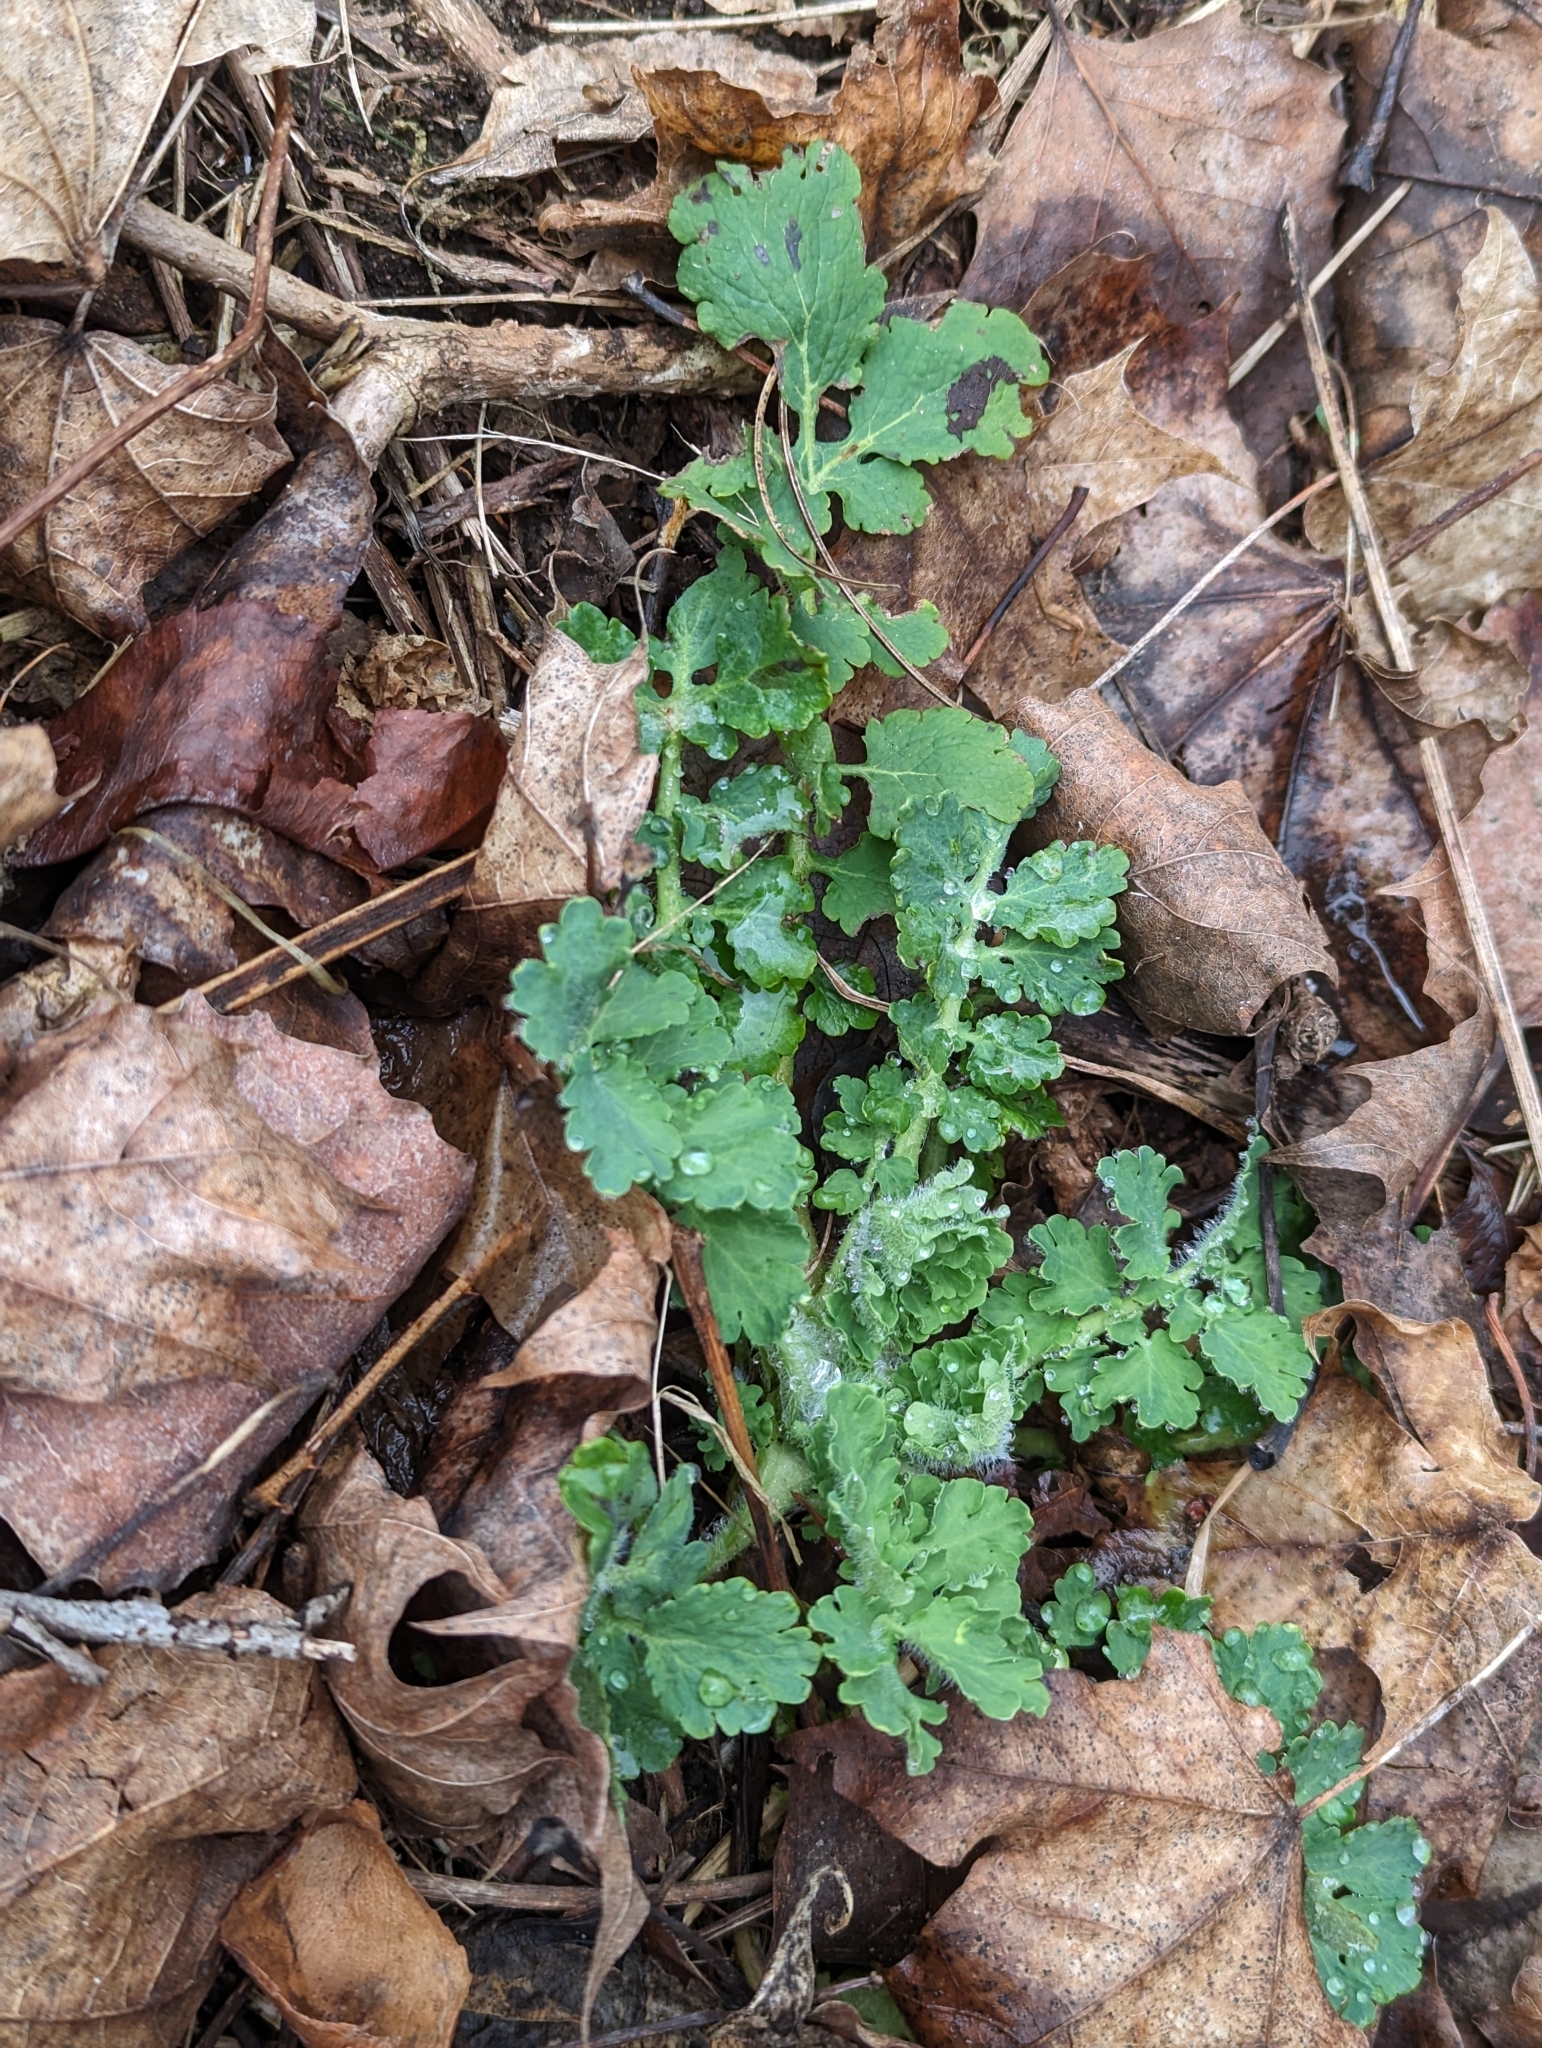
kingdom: Plantae
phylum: Tracheophyta
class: Magnoliopsida
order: Ranunculales
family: Papaveraceae
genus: Chelidonium
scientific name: Chelidonium majus
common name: Greater celandine
